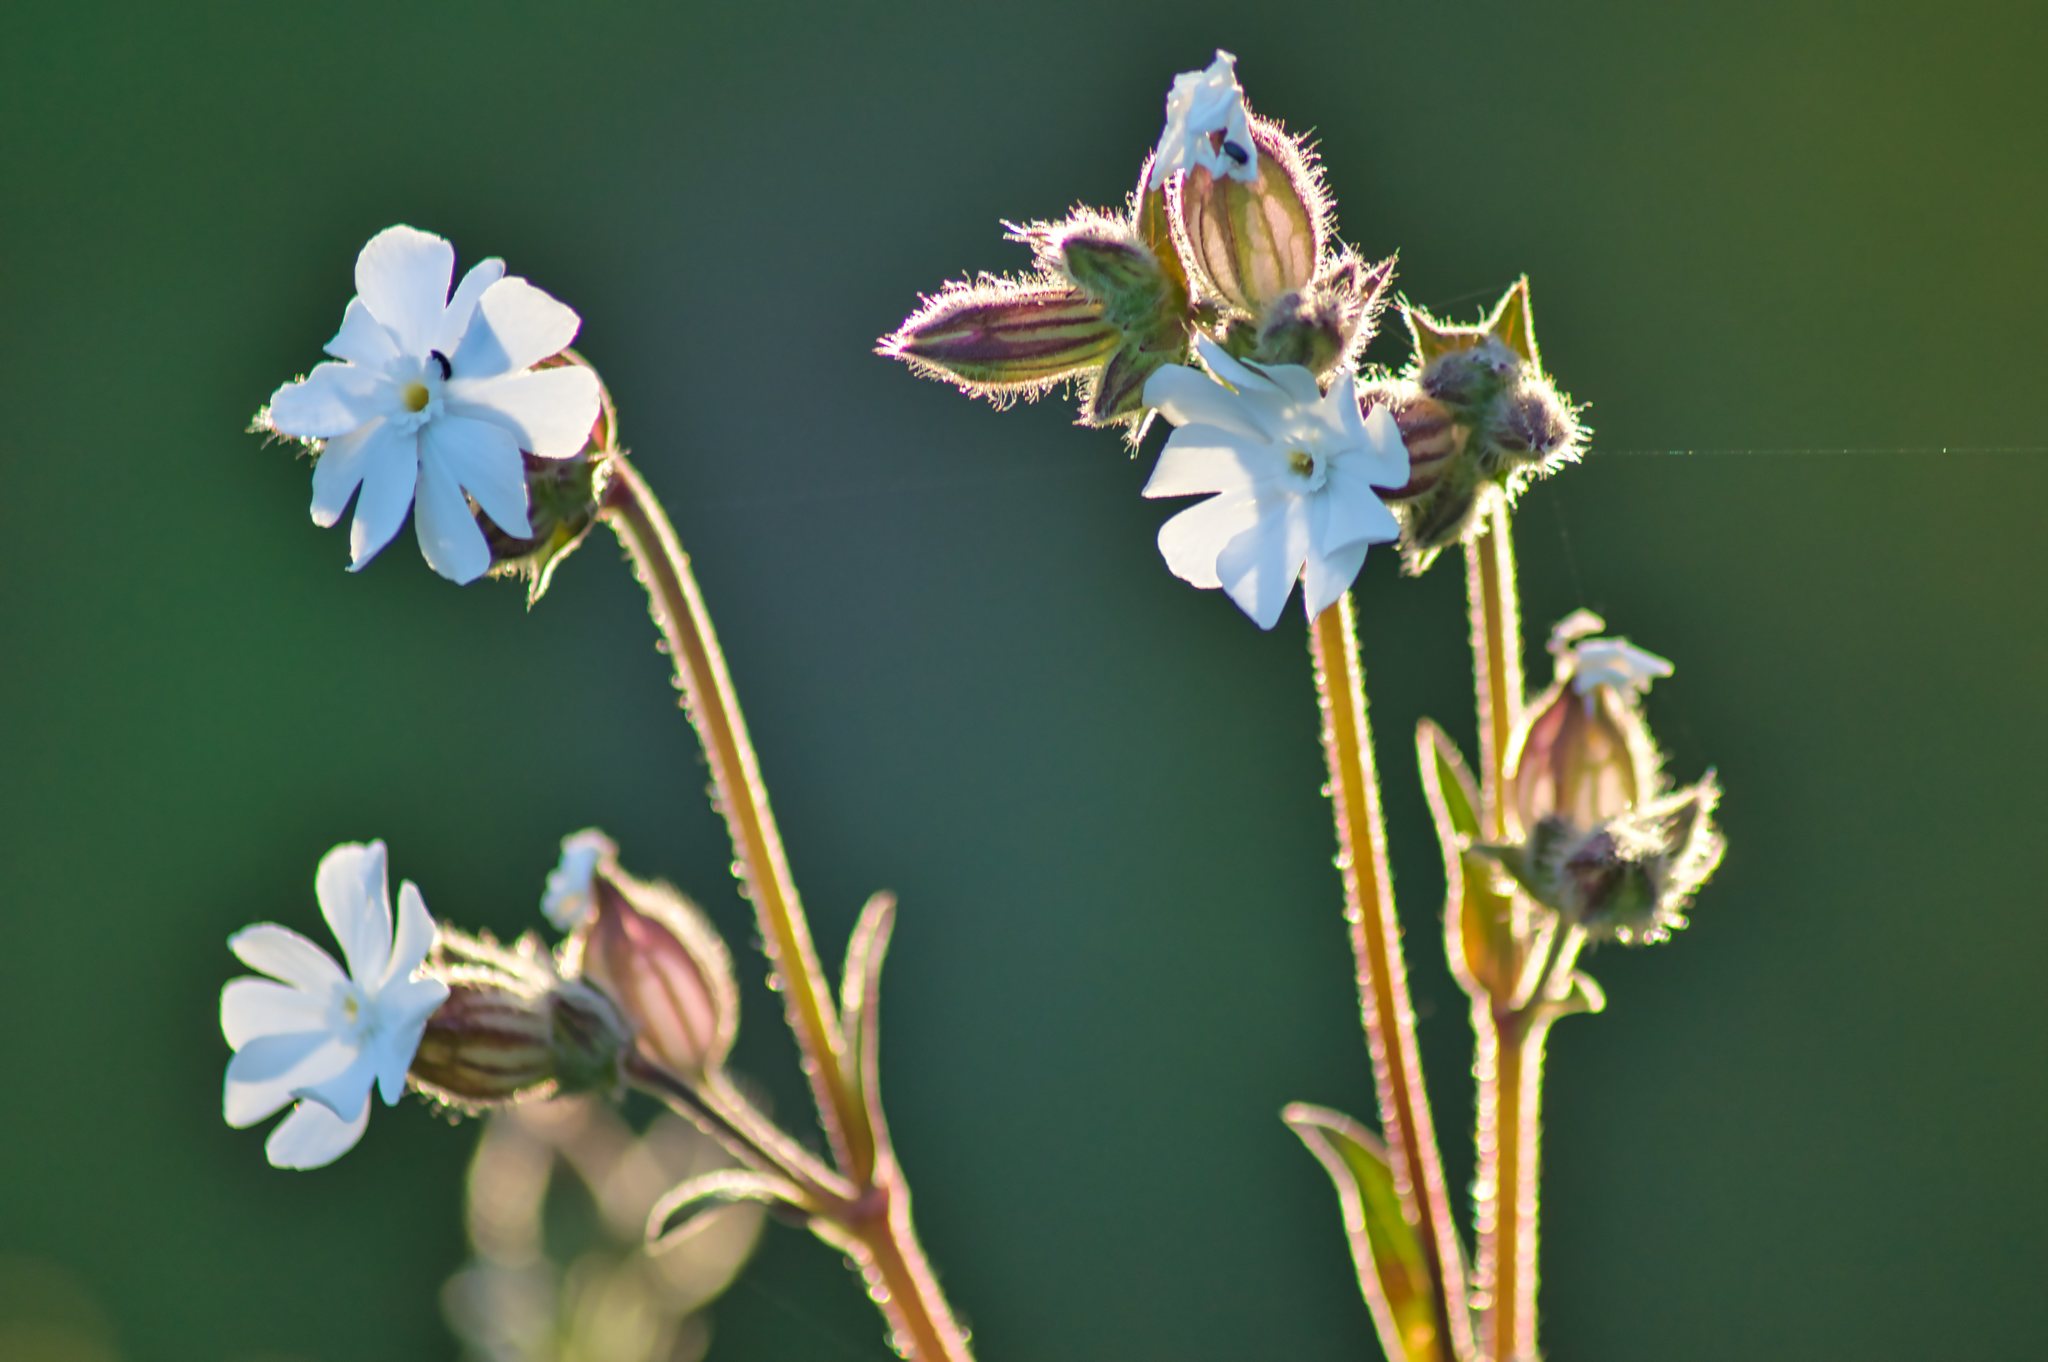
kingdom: Plantae
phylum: Tracheophyta
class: Magnoliopsida
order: Caryophyllales
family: Caryophyllaceae
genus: Silene
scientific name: Silene latifolia
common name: White campion
